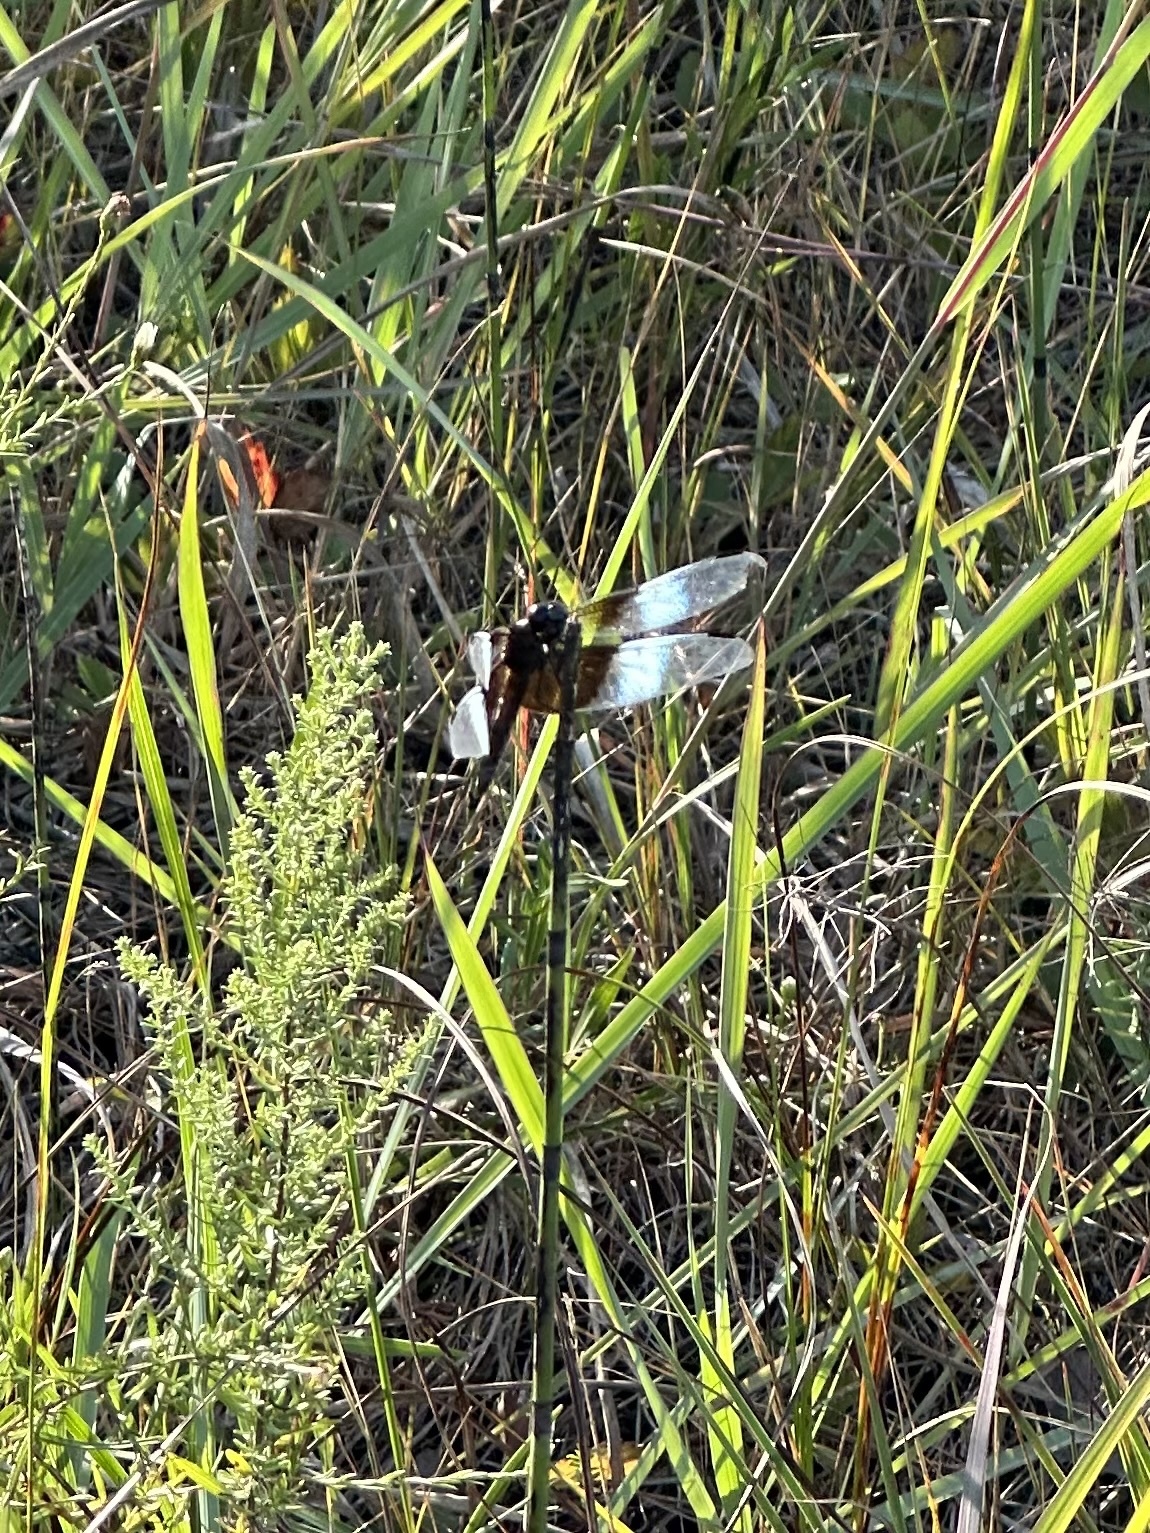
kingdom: Animalia
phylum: Arthropoda
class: Insecta
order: Odonata
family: Libellulidae
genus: Libellula
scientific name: Libellula luctuosa
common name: Widow skimmer
